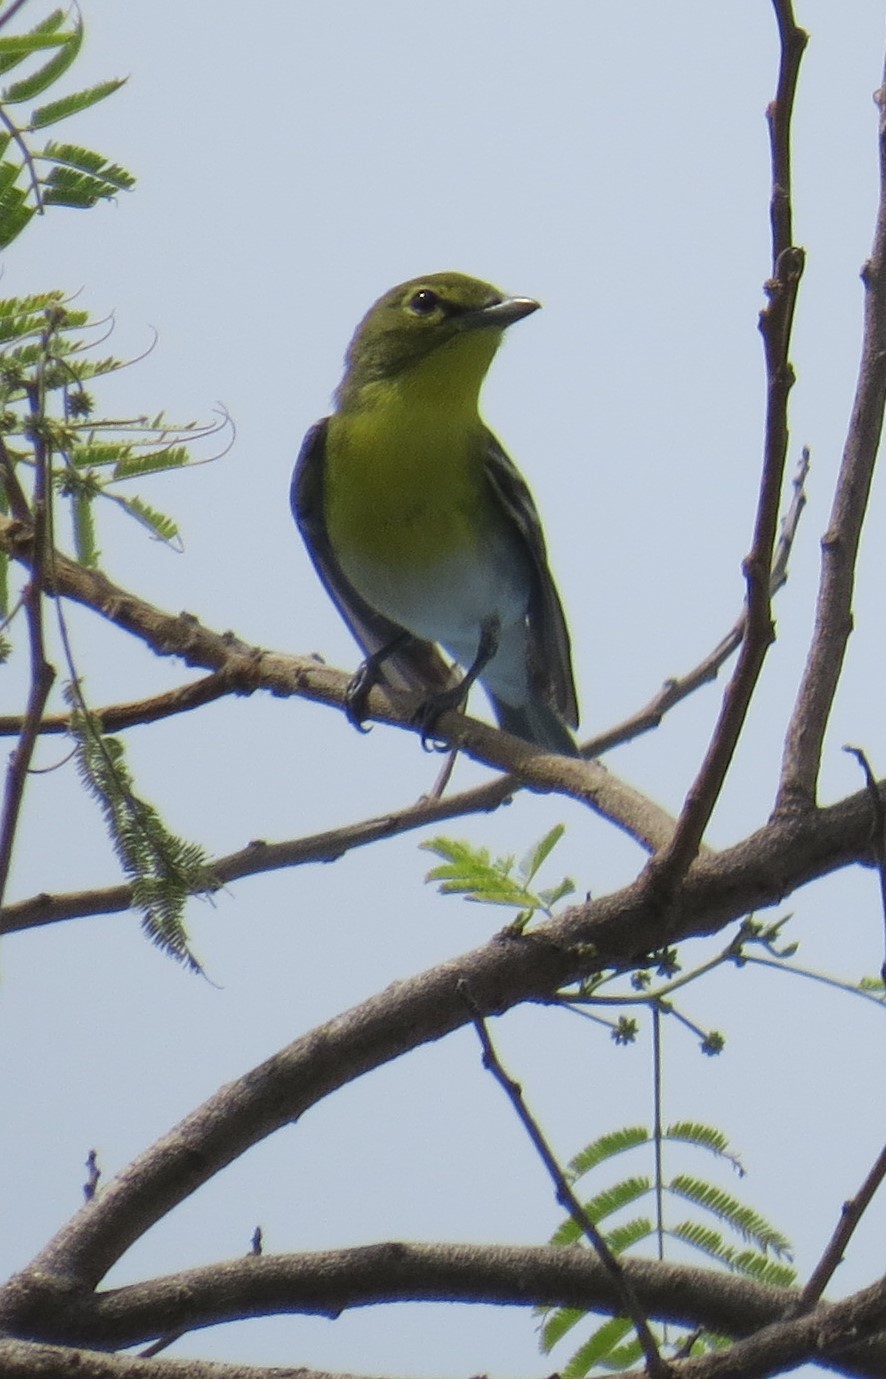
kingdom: Animalia
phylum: Chordata
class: Aves
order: Passeriformes
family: Vireonidae
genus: Vireo
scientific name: Vireo flavifrons
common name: Yellow-throated vireo
